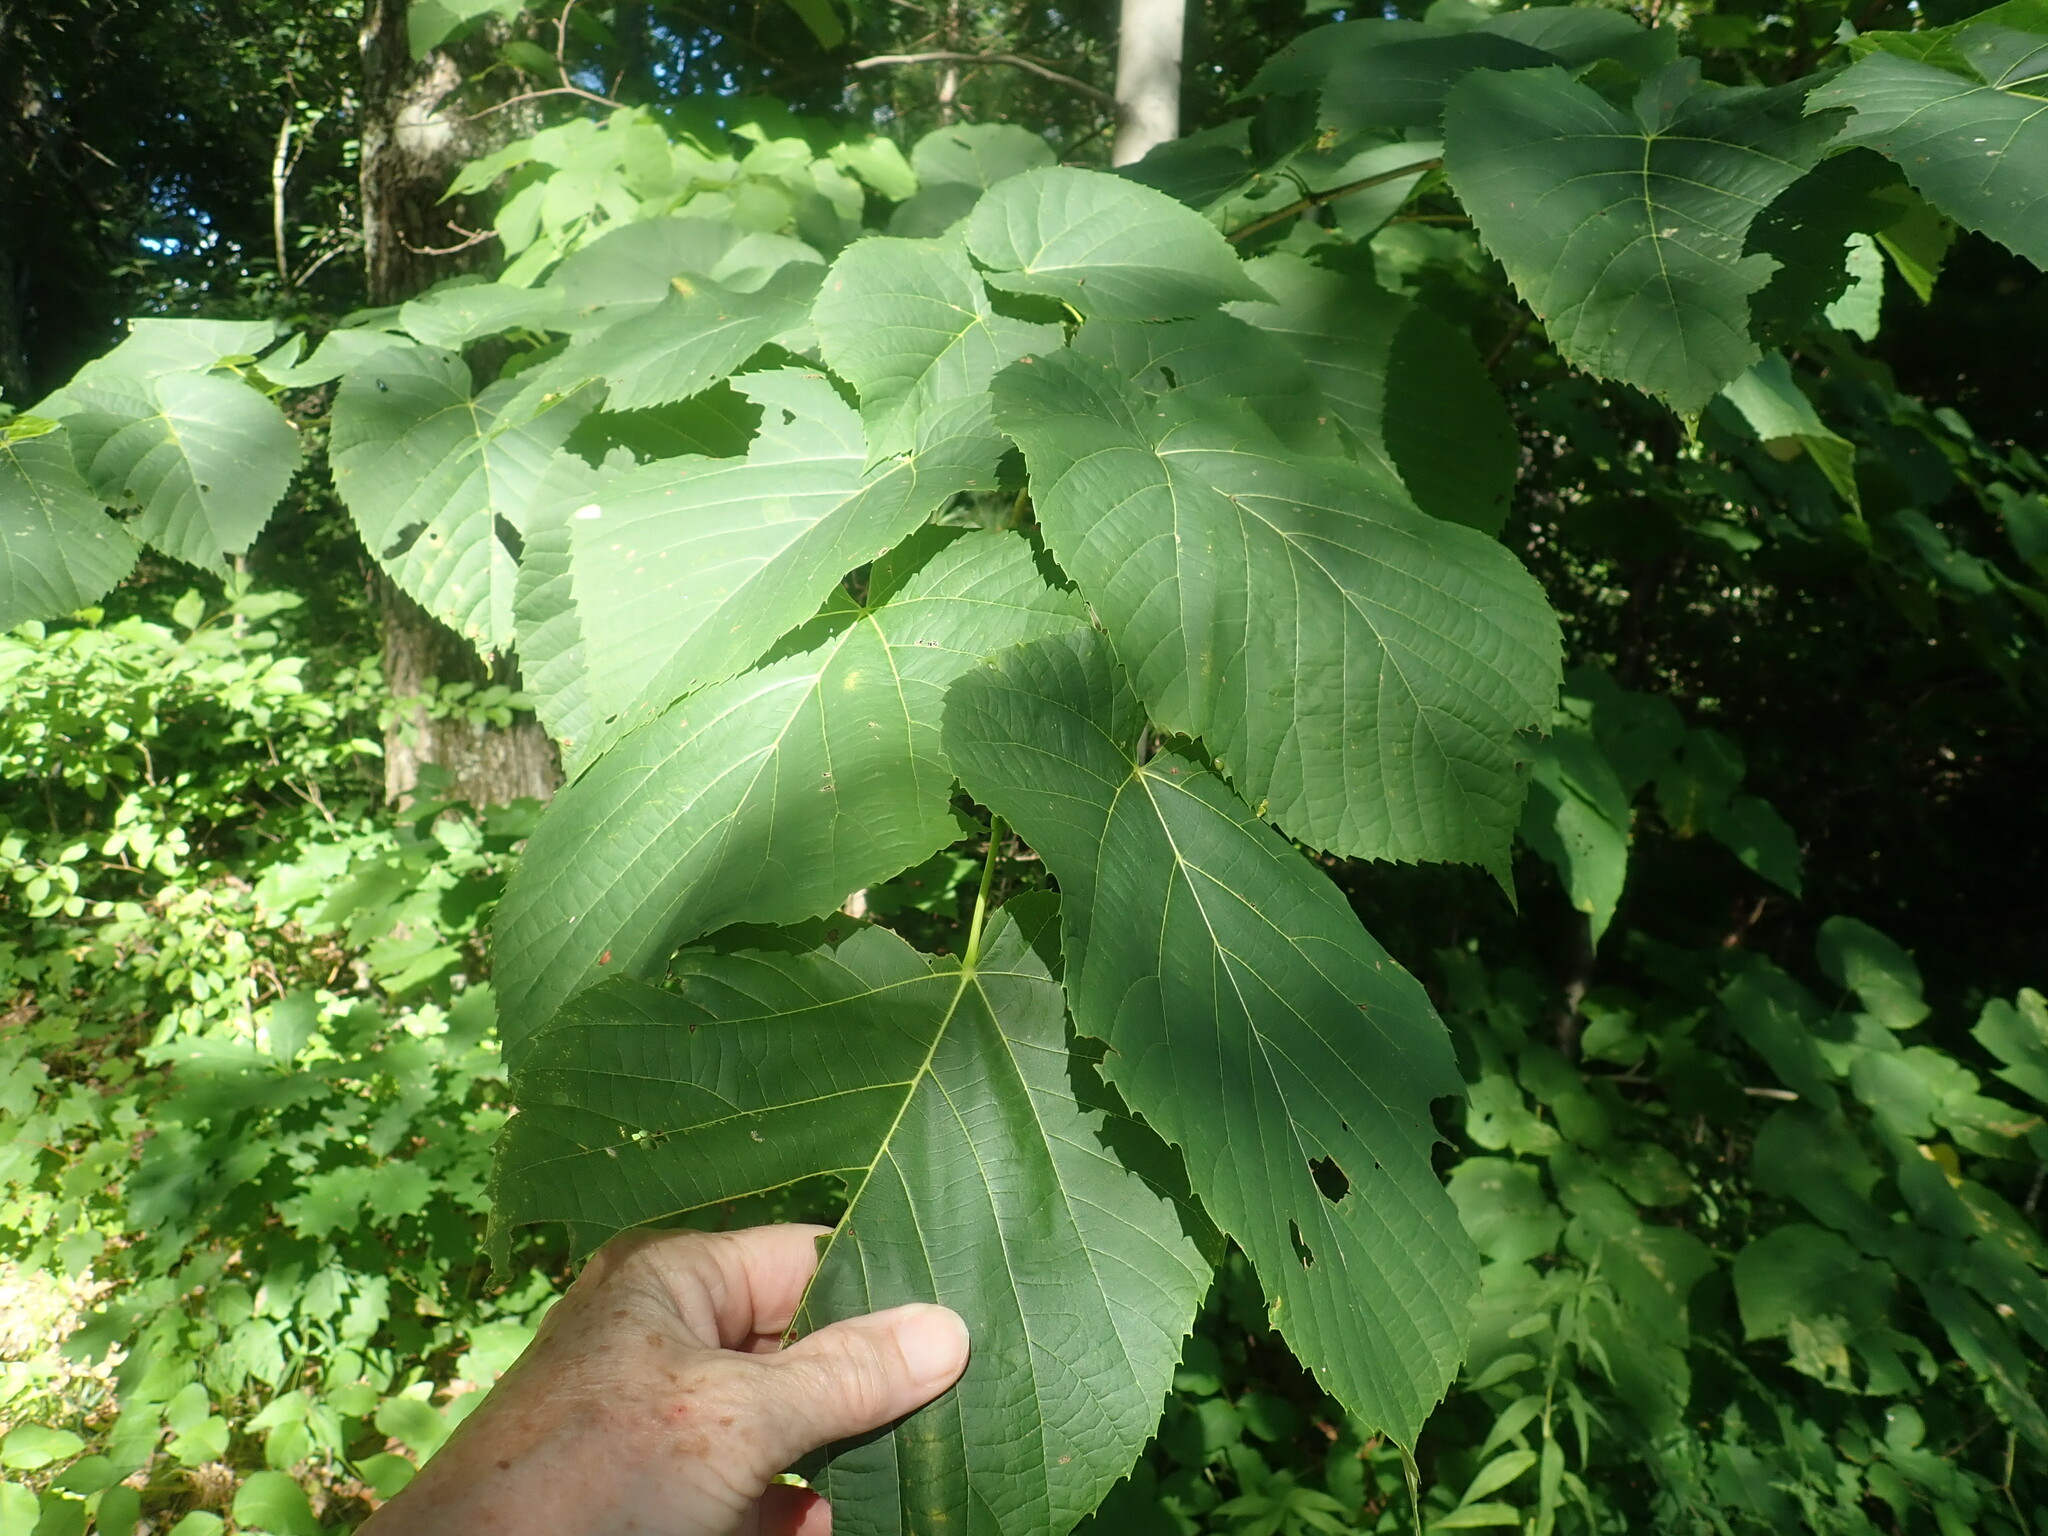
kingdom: Plantae
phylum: Tracheophyta
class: Magnoliopsida
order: Malvales
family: Malvaceae
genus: Tilia
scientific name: Tilia americana
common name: Basswood
